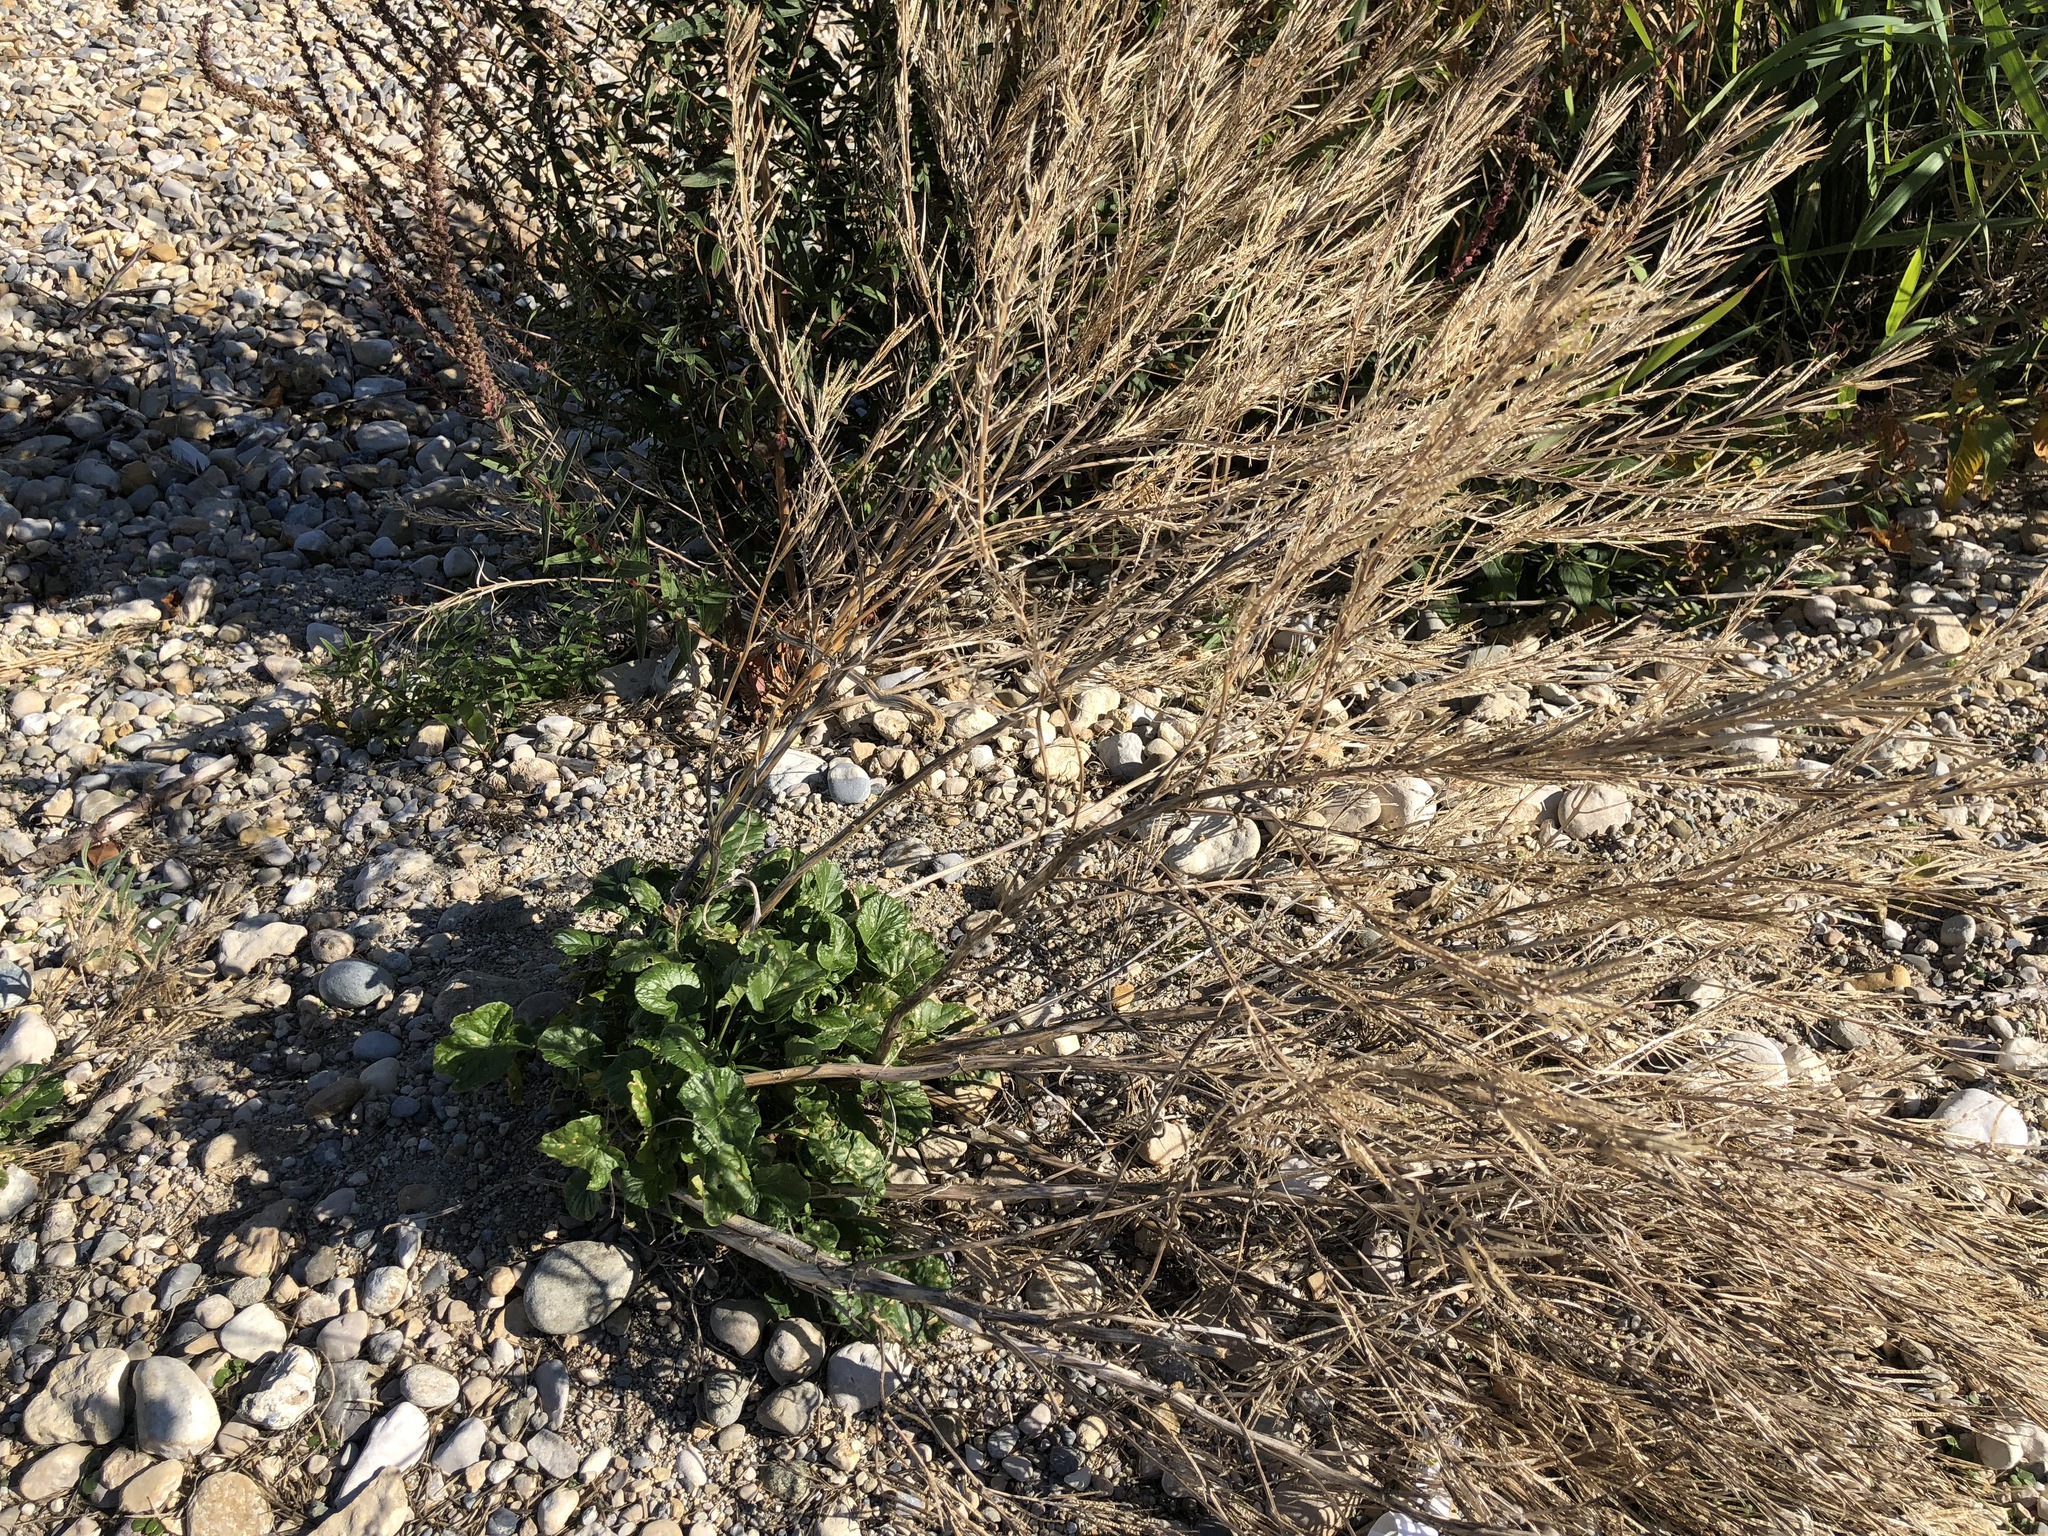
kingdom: Plantae
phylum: Tracheophyta
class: Magnoliopsida
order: Brassicales
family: Brassicaceae
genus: Barbarea
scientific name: Barbarea vulgaris
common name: Cressy-greens
